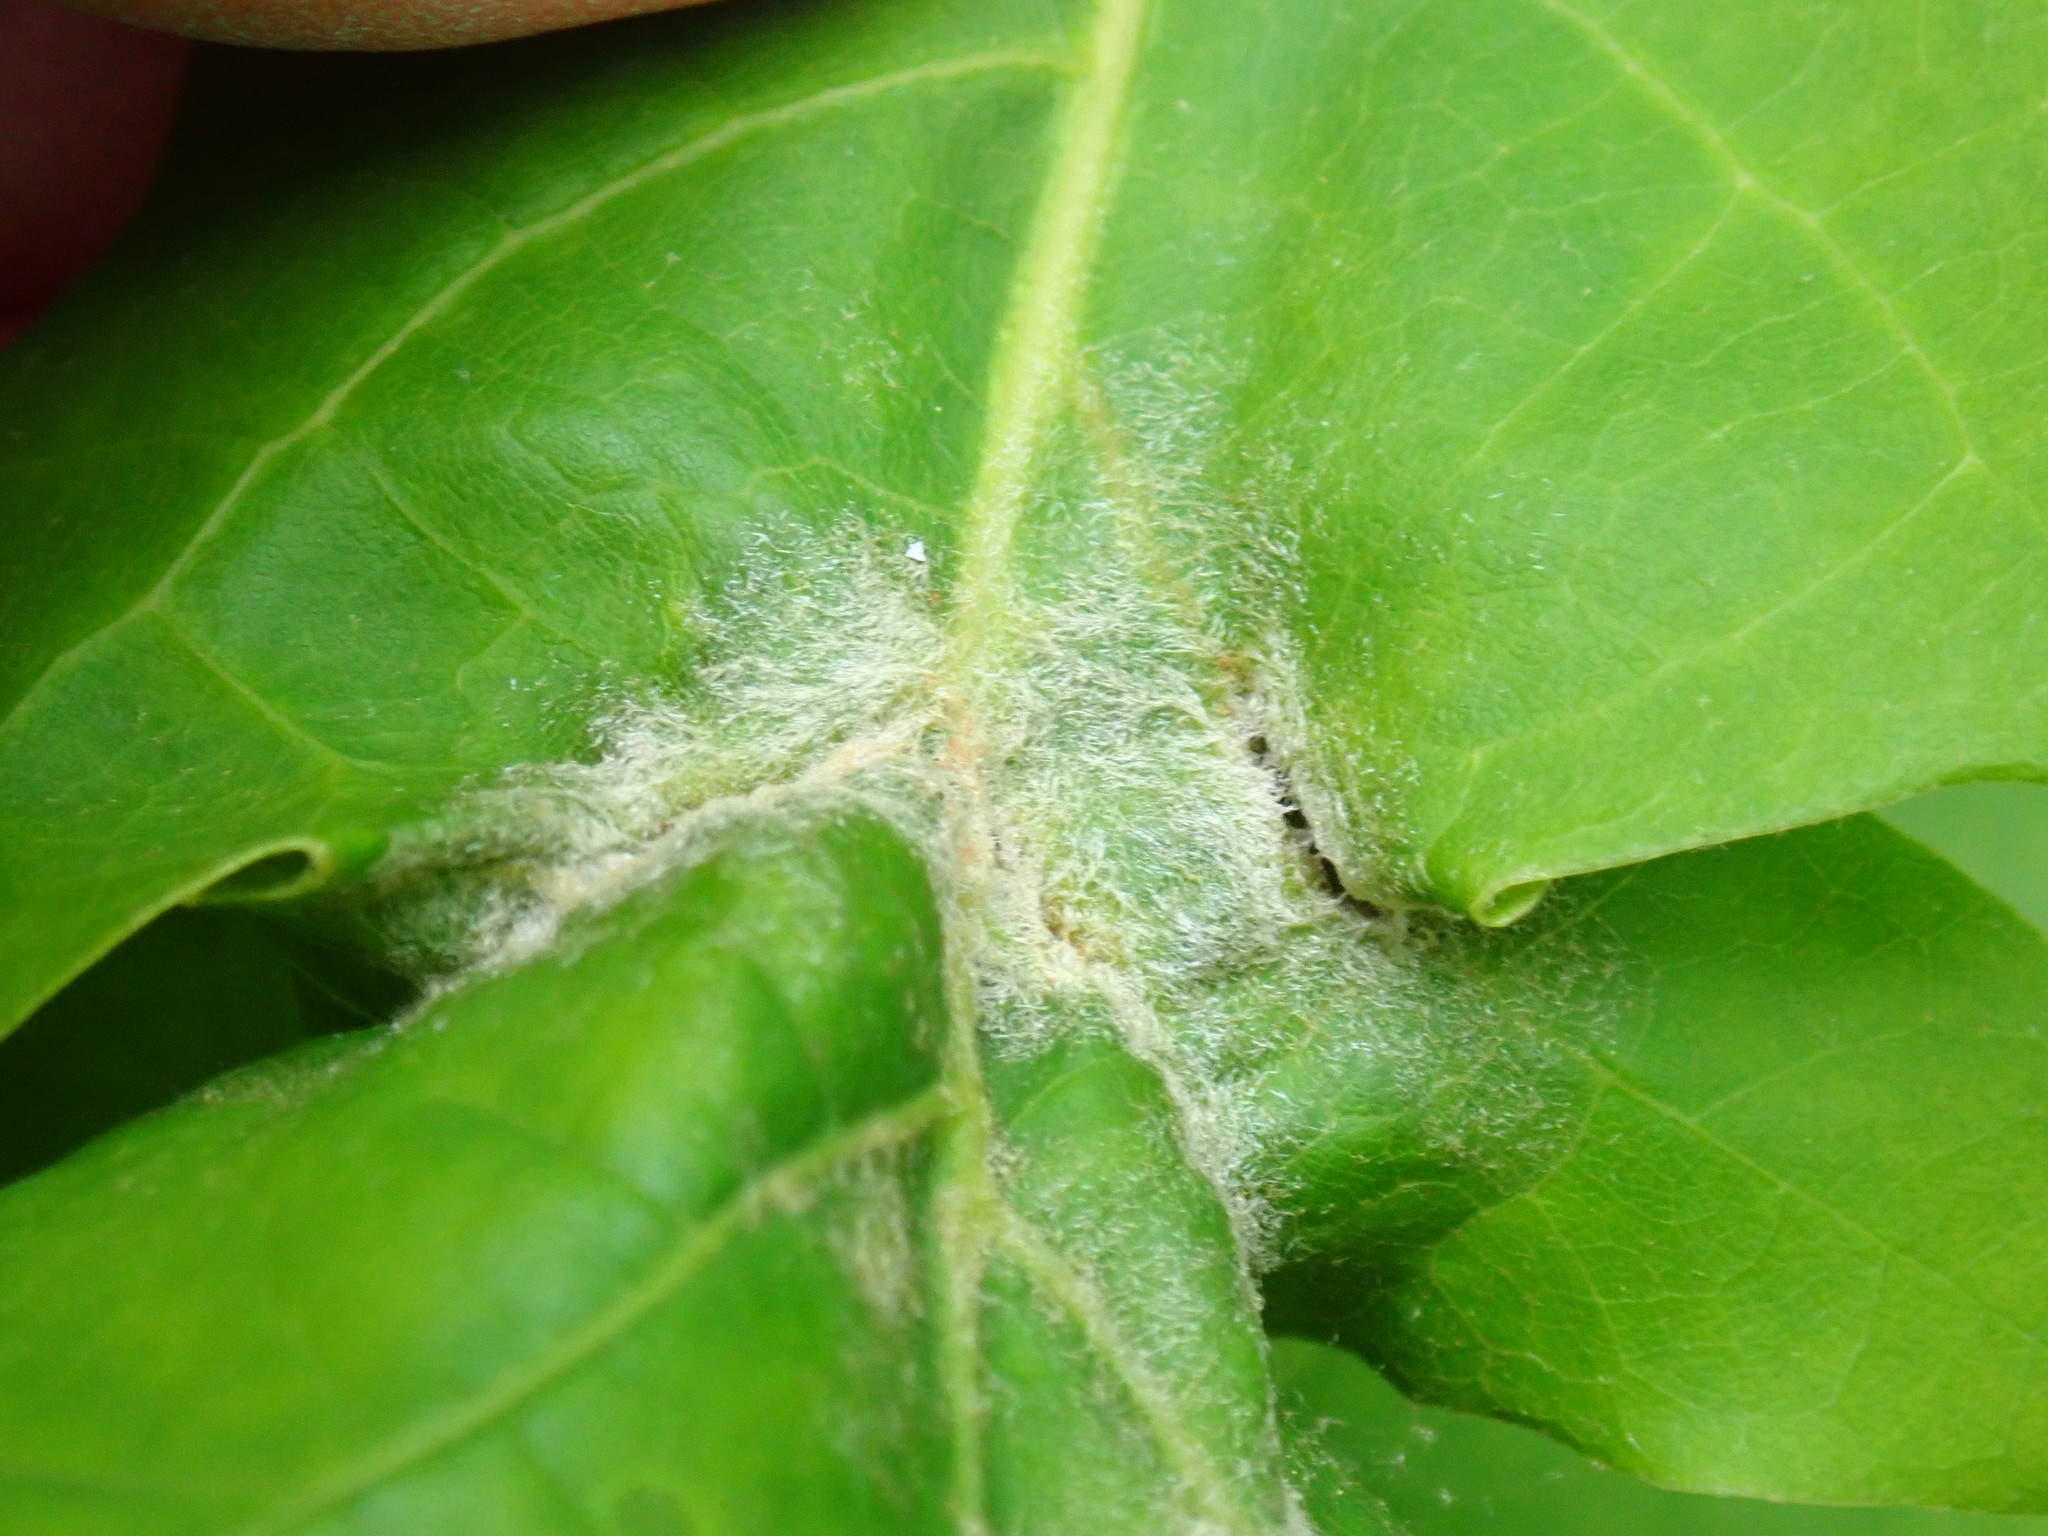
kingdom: Animalia
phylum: Arthropoda
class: Insecta
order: Diptera
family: Cecidomyiidae
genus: Macrodiplosis
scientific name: Macrodiplosis niveipila
